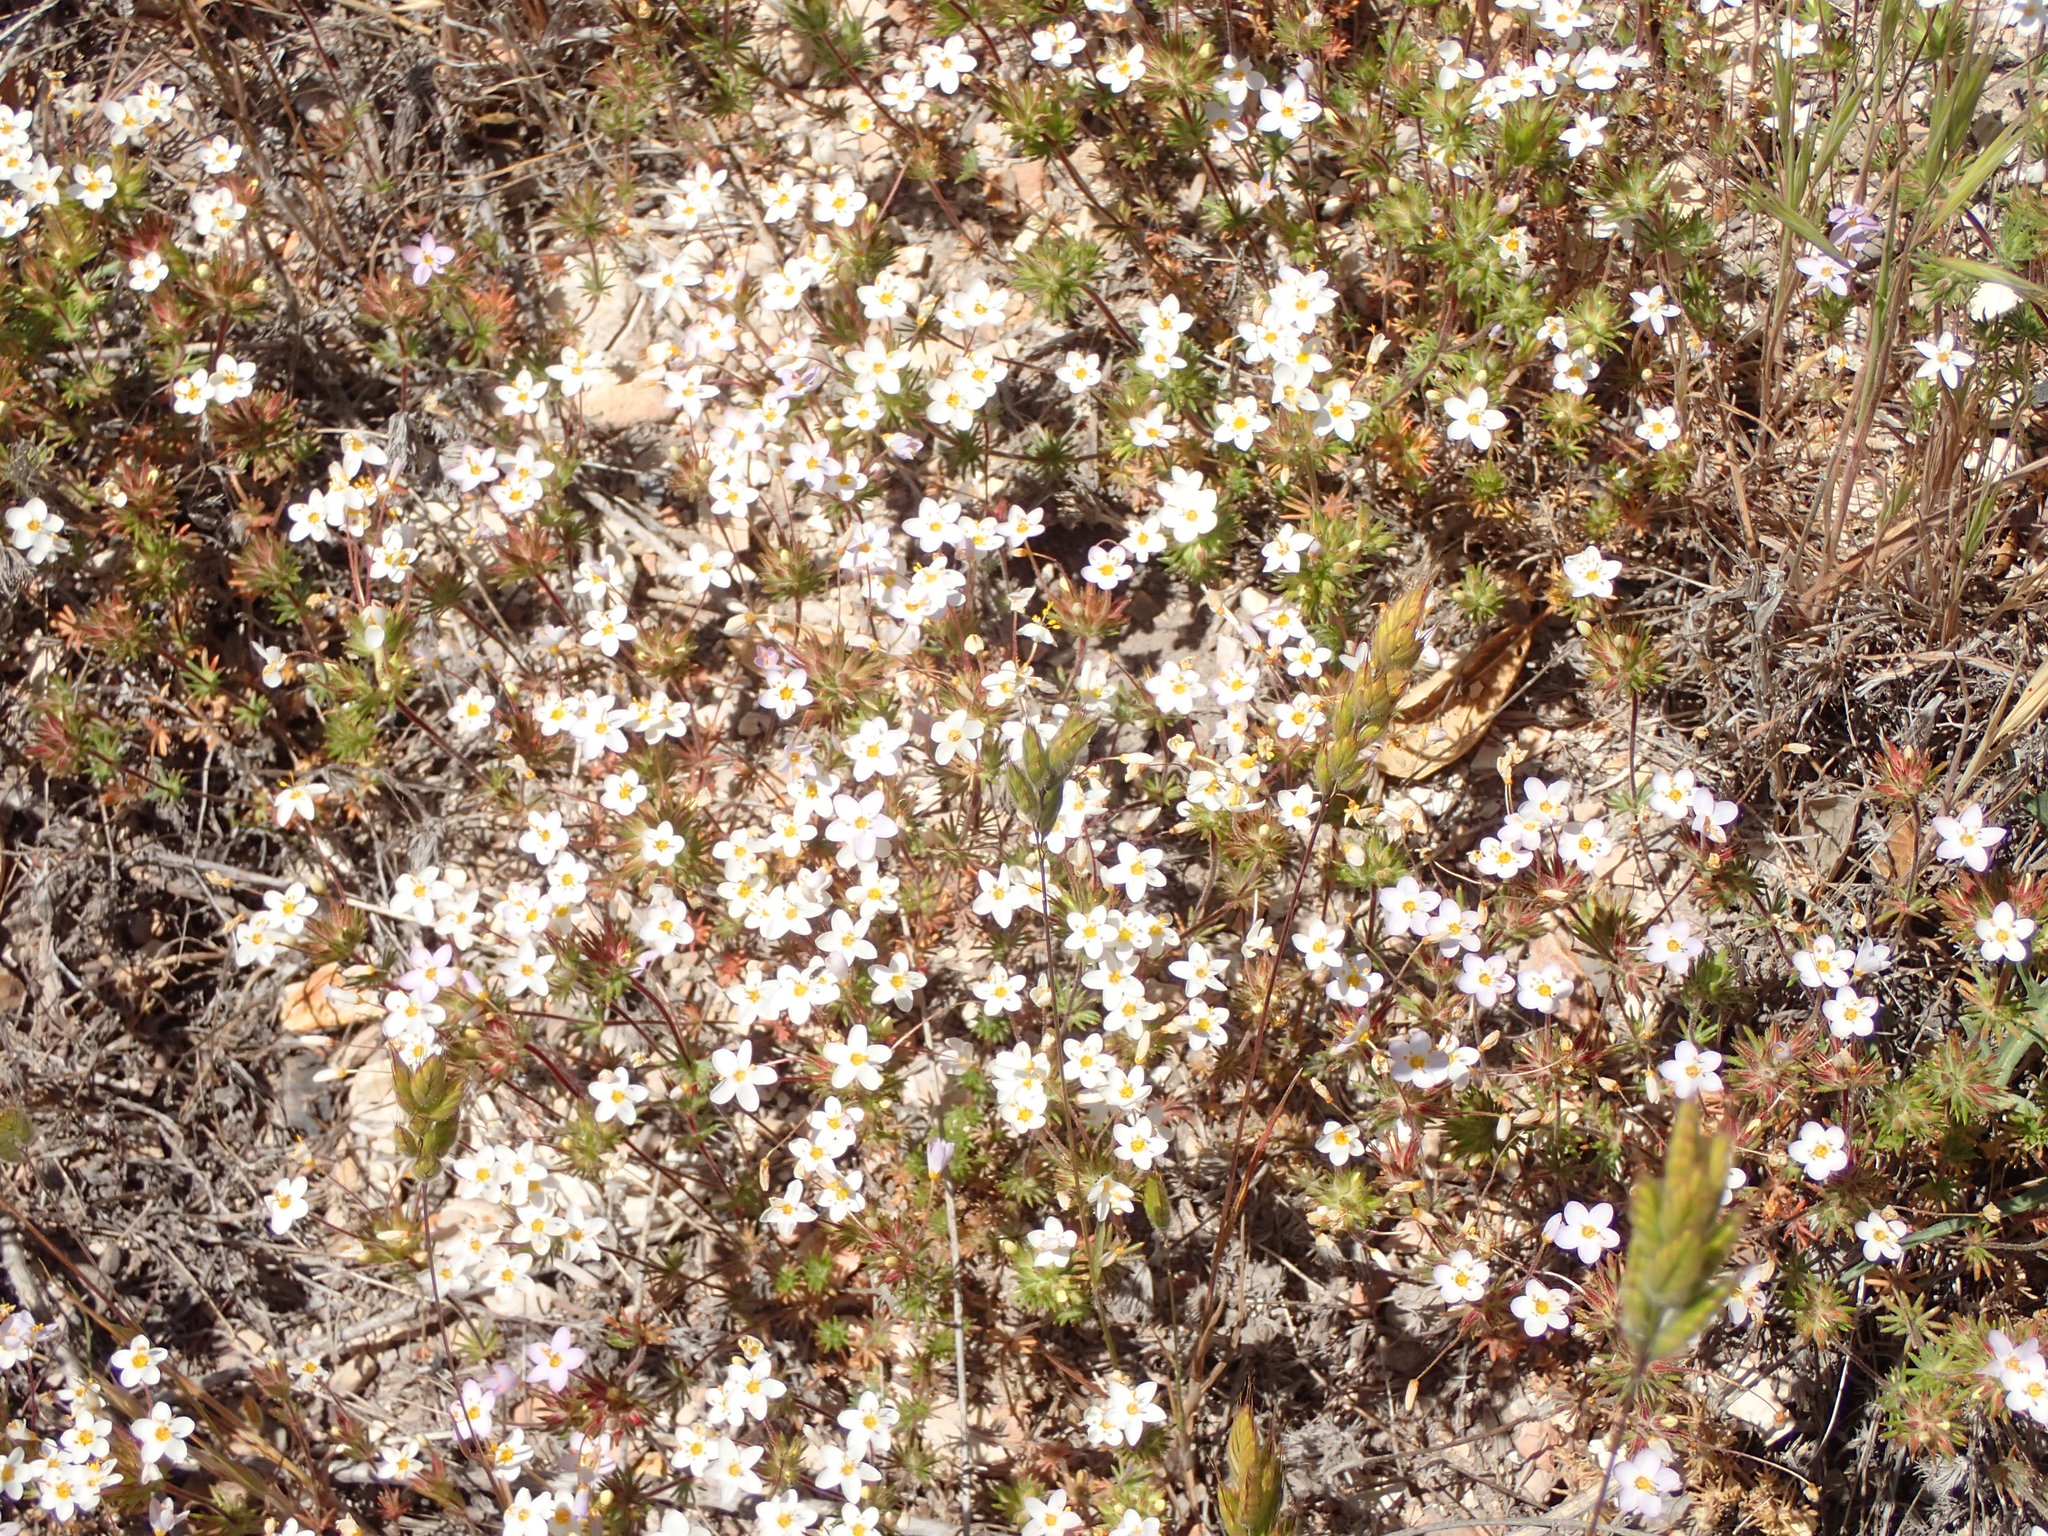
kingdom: Plantae
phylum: Tracheophyta
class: Magnoliopsida
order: Ericales
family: Polemoniaceae
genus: Leptosiphon
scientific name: Leptosiphon parviflorus
